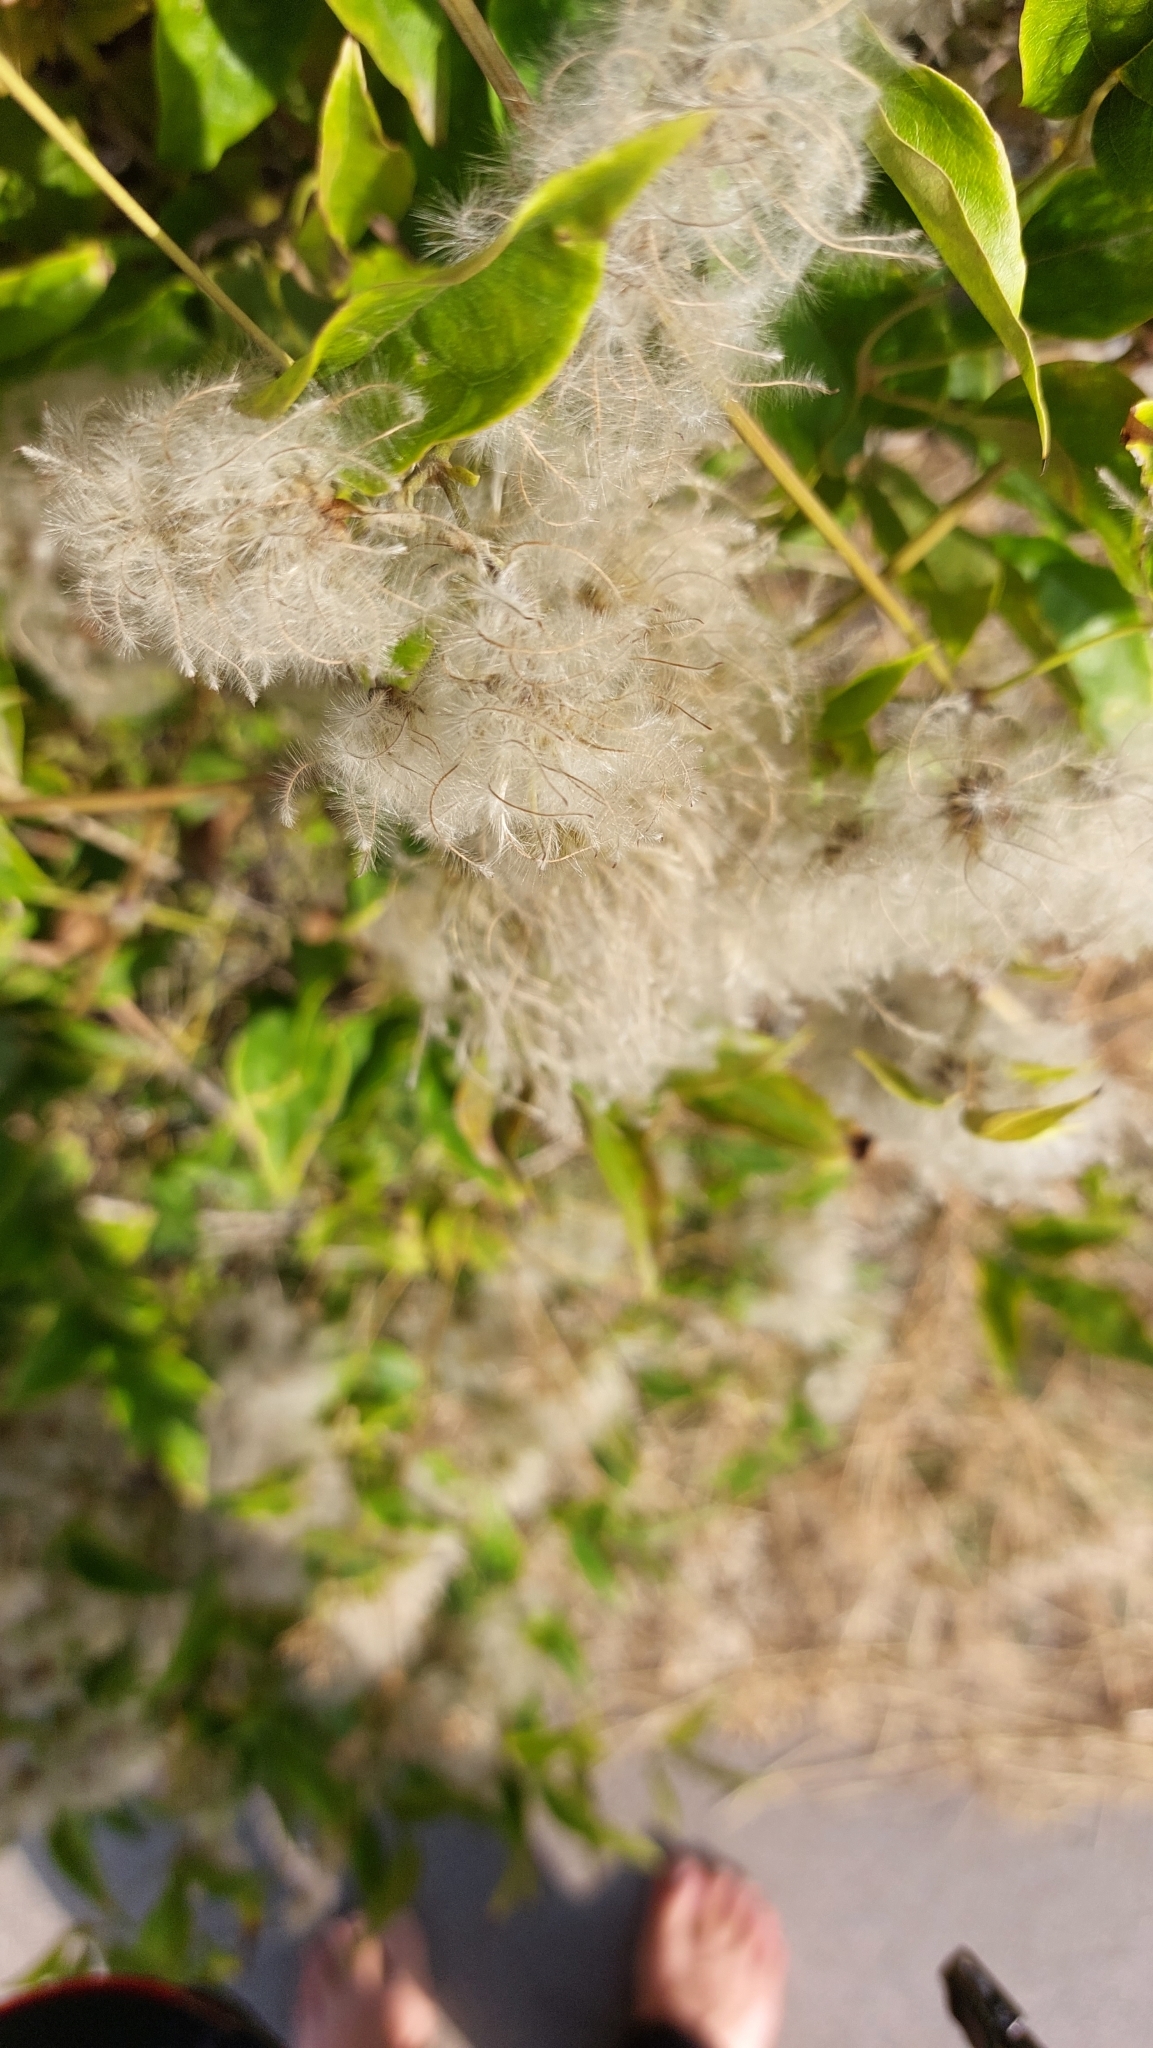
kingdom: Plantae
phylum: Tracheophyta
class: Magnoliopsida
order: Ranunculales
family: Ranunculaceae
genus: Clematis
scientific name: Clematis vitalba
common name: Evergreen clematis
